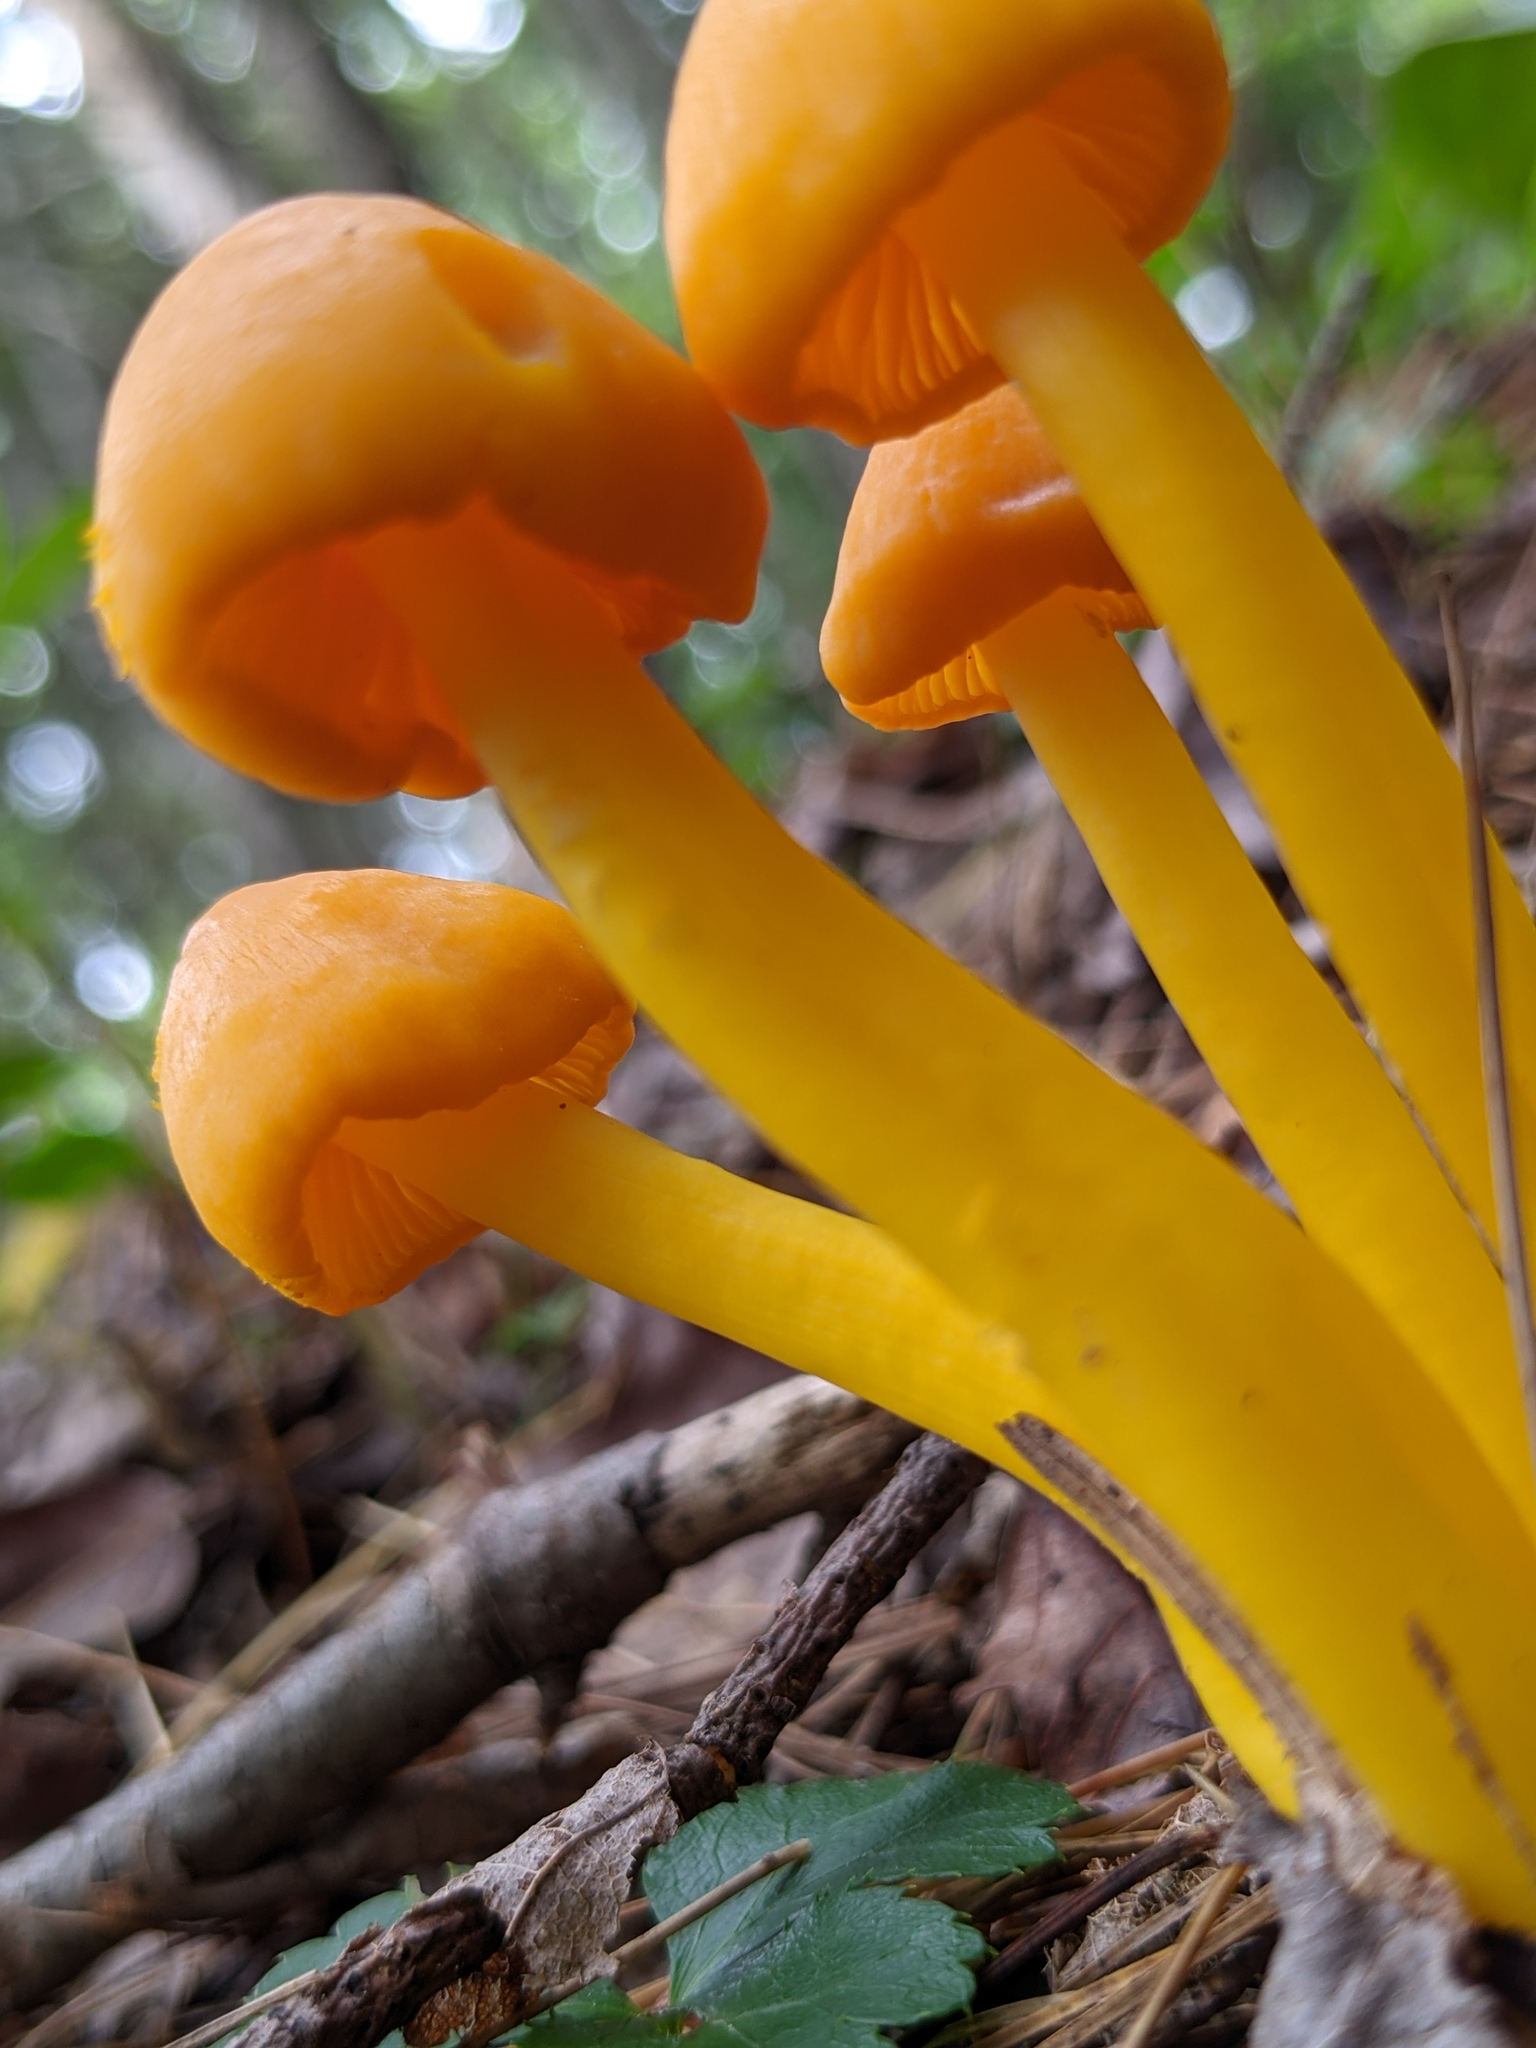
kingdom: Fungi
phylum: Basidiomycota
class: Agaricomycetes
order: Agaricales
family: Hygrophoraceae
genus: Humidicutis
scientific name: Humidicutis marginata
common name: Orange gilled waxcap
